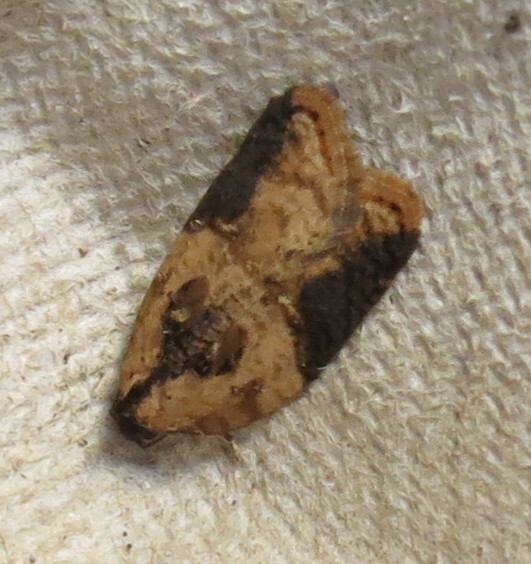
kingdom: Animalia
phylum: Arthropoda
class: Insecta
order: Lepidoptera
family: Tortricidae
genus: Acleris
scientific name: Acleris variegana
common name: Garden rose tortrix
